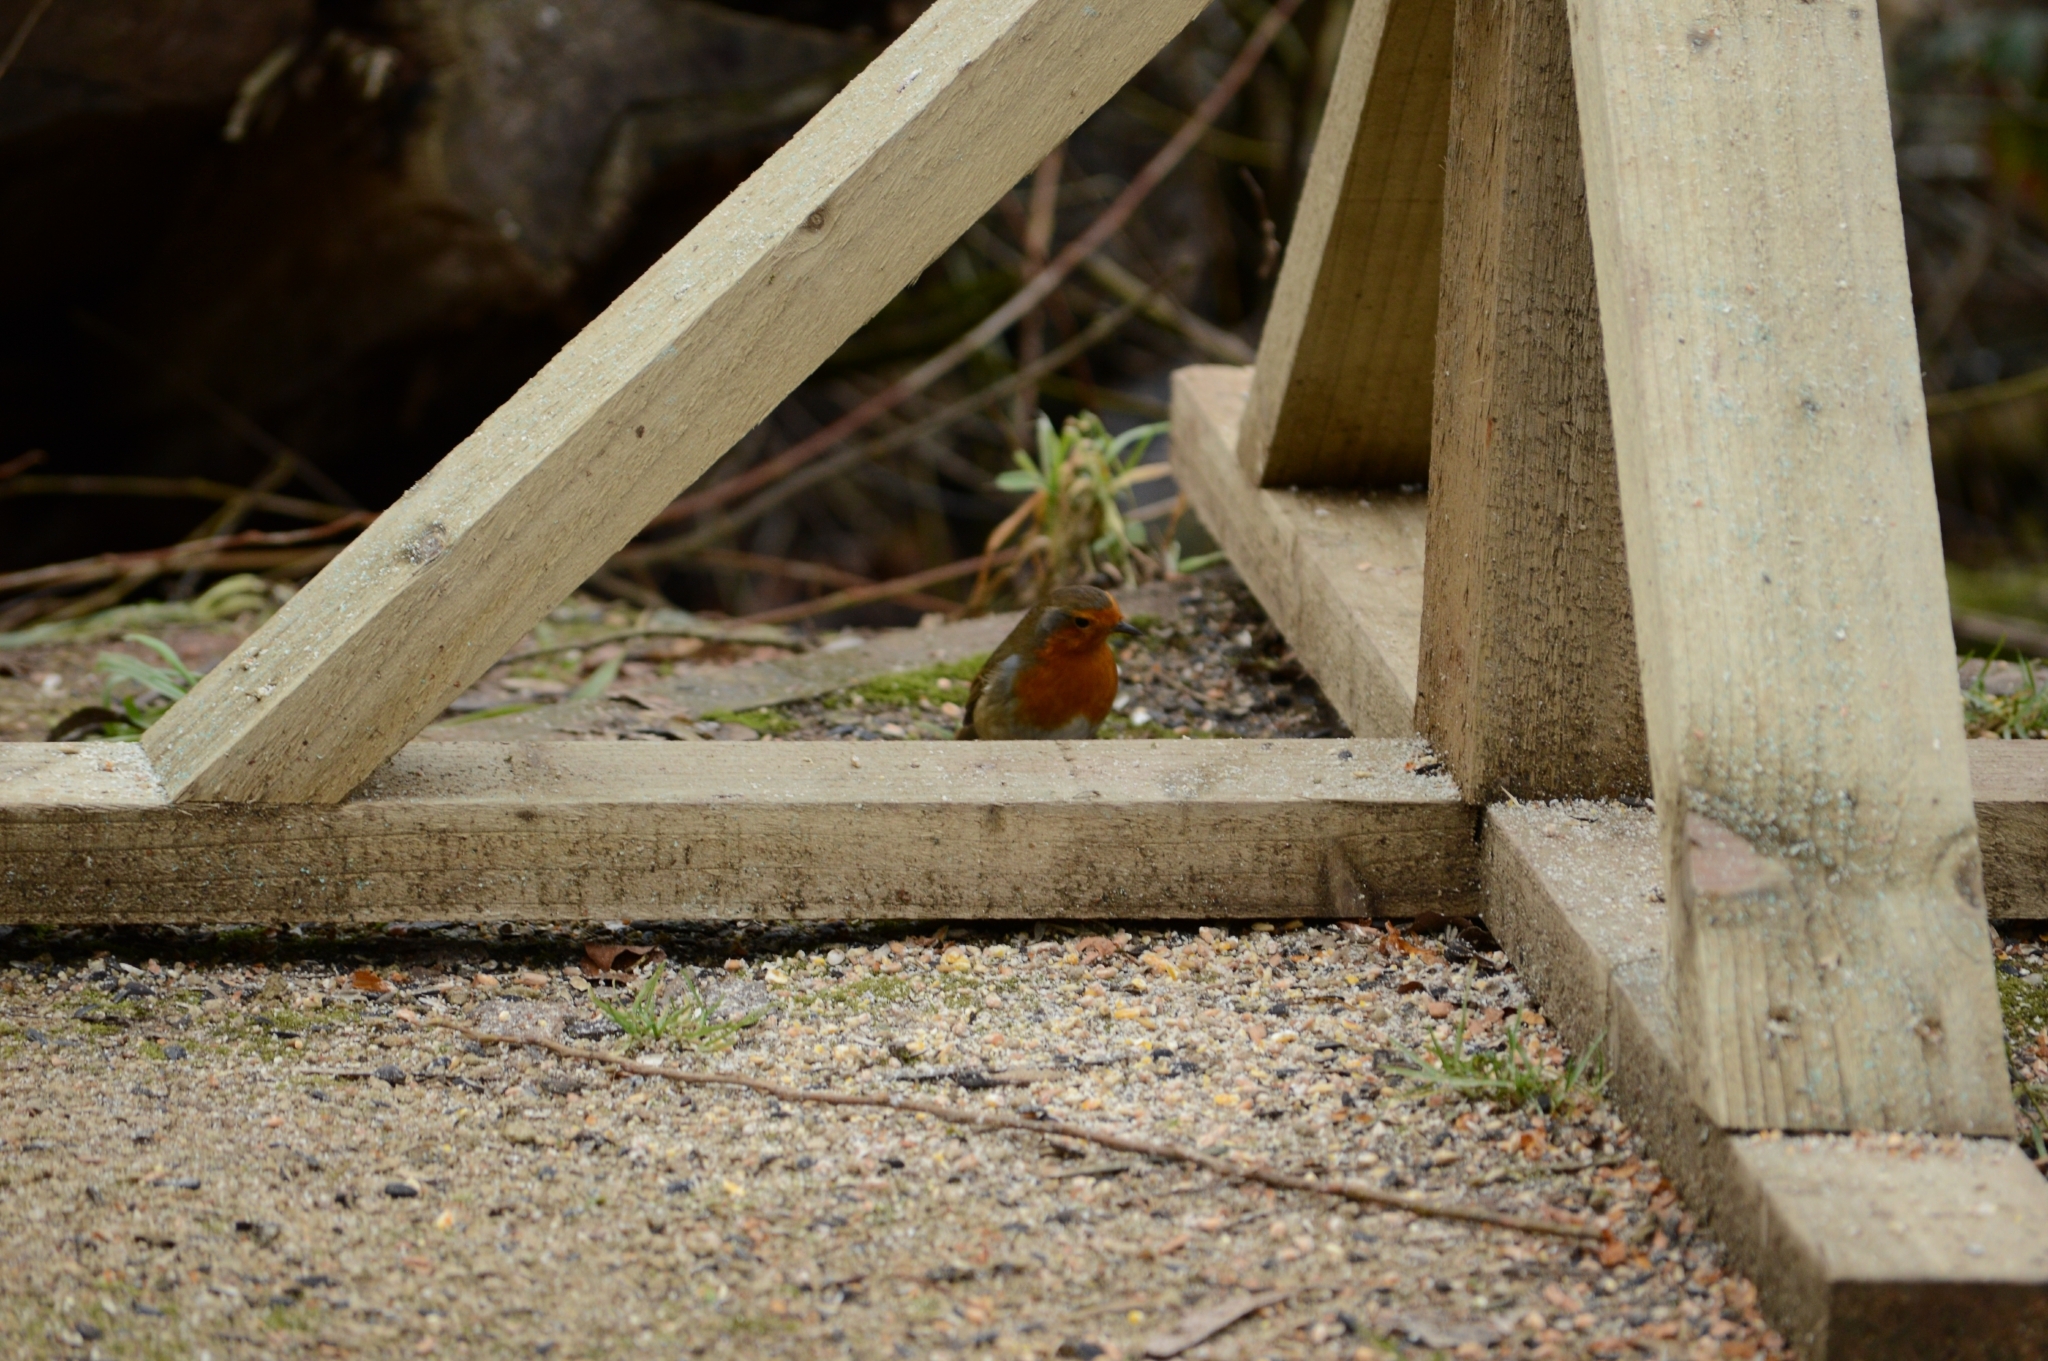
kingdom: Animalia
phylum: Chordata
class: Aves
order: Passeriformes
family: Muscicapidae
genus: Erithacus
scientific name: Erithacus rubecula
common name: European robin
